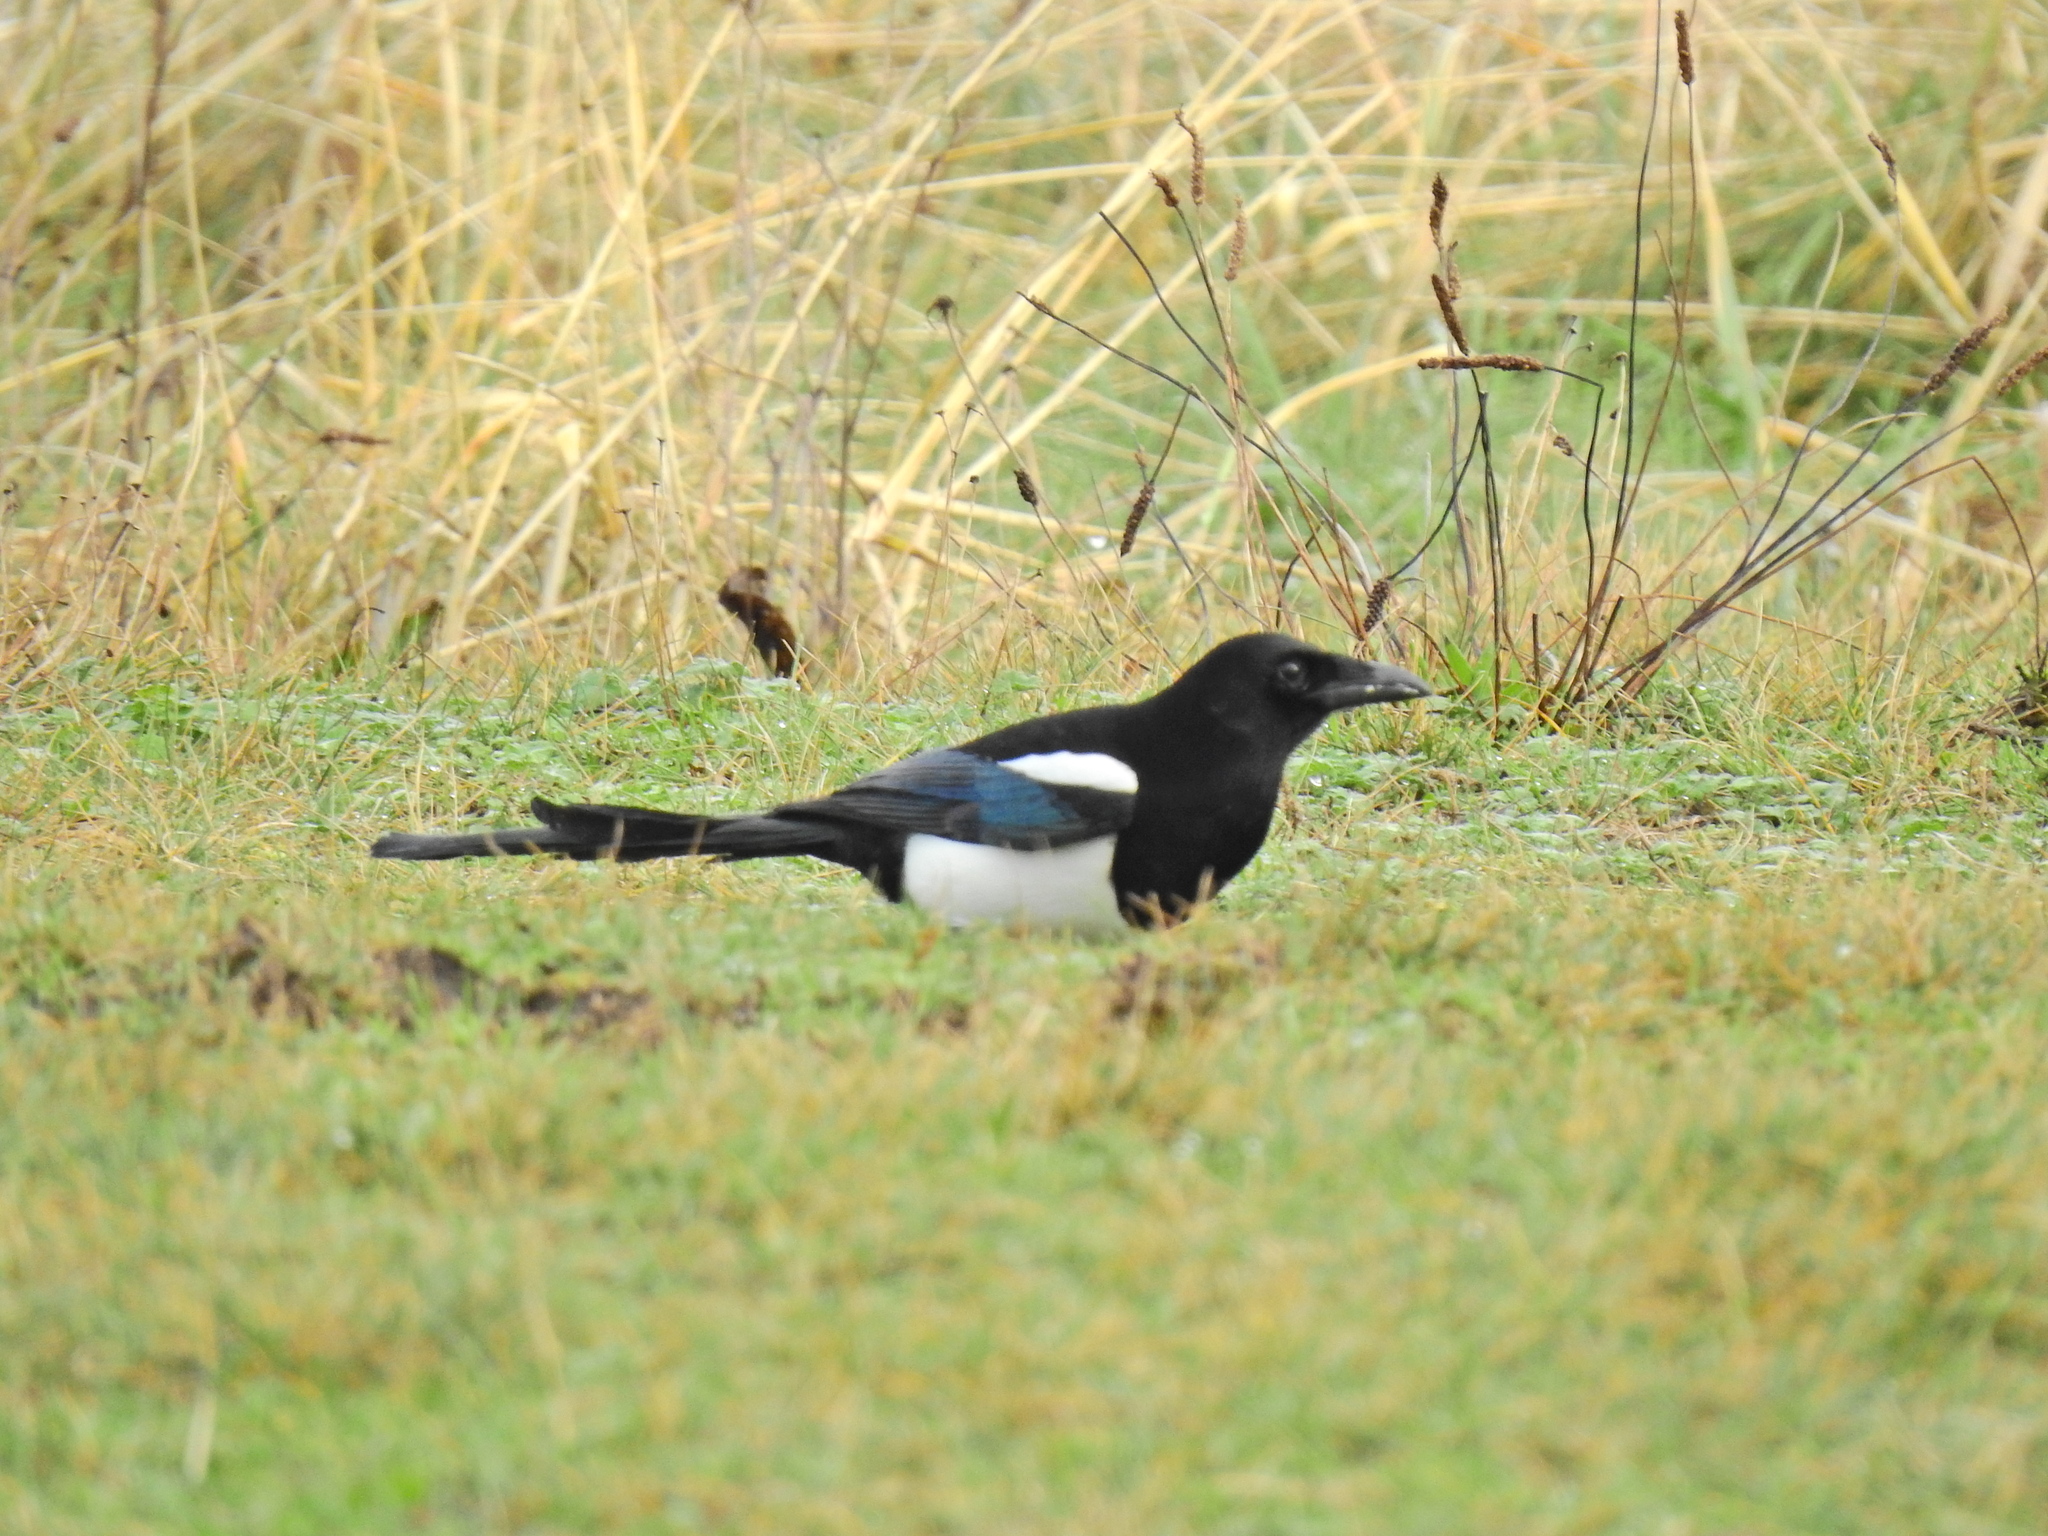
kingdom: Animalia
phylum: Chordata
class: Aves
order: Passeriformes
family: Corvidae
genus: Pica
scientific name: Pica pica
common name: Eurasian magpie
